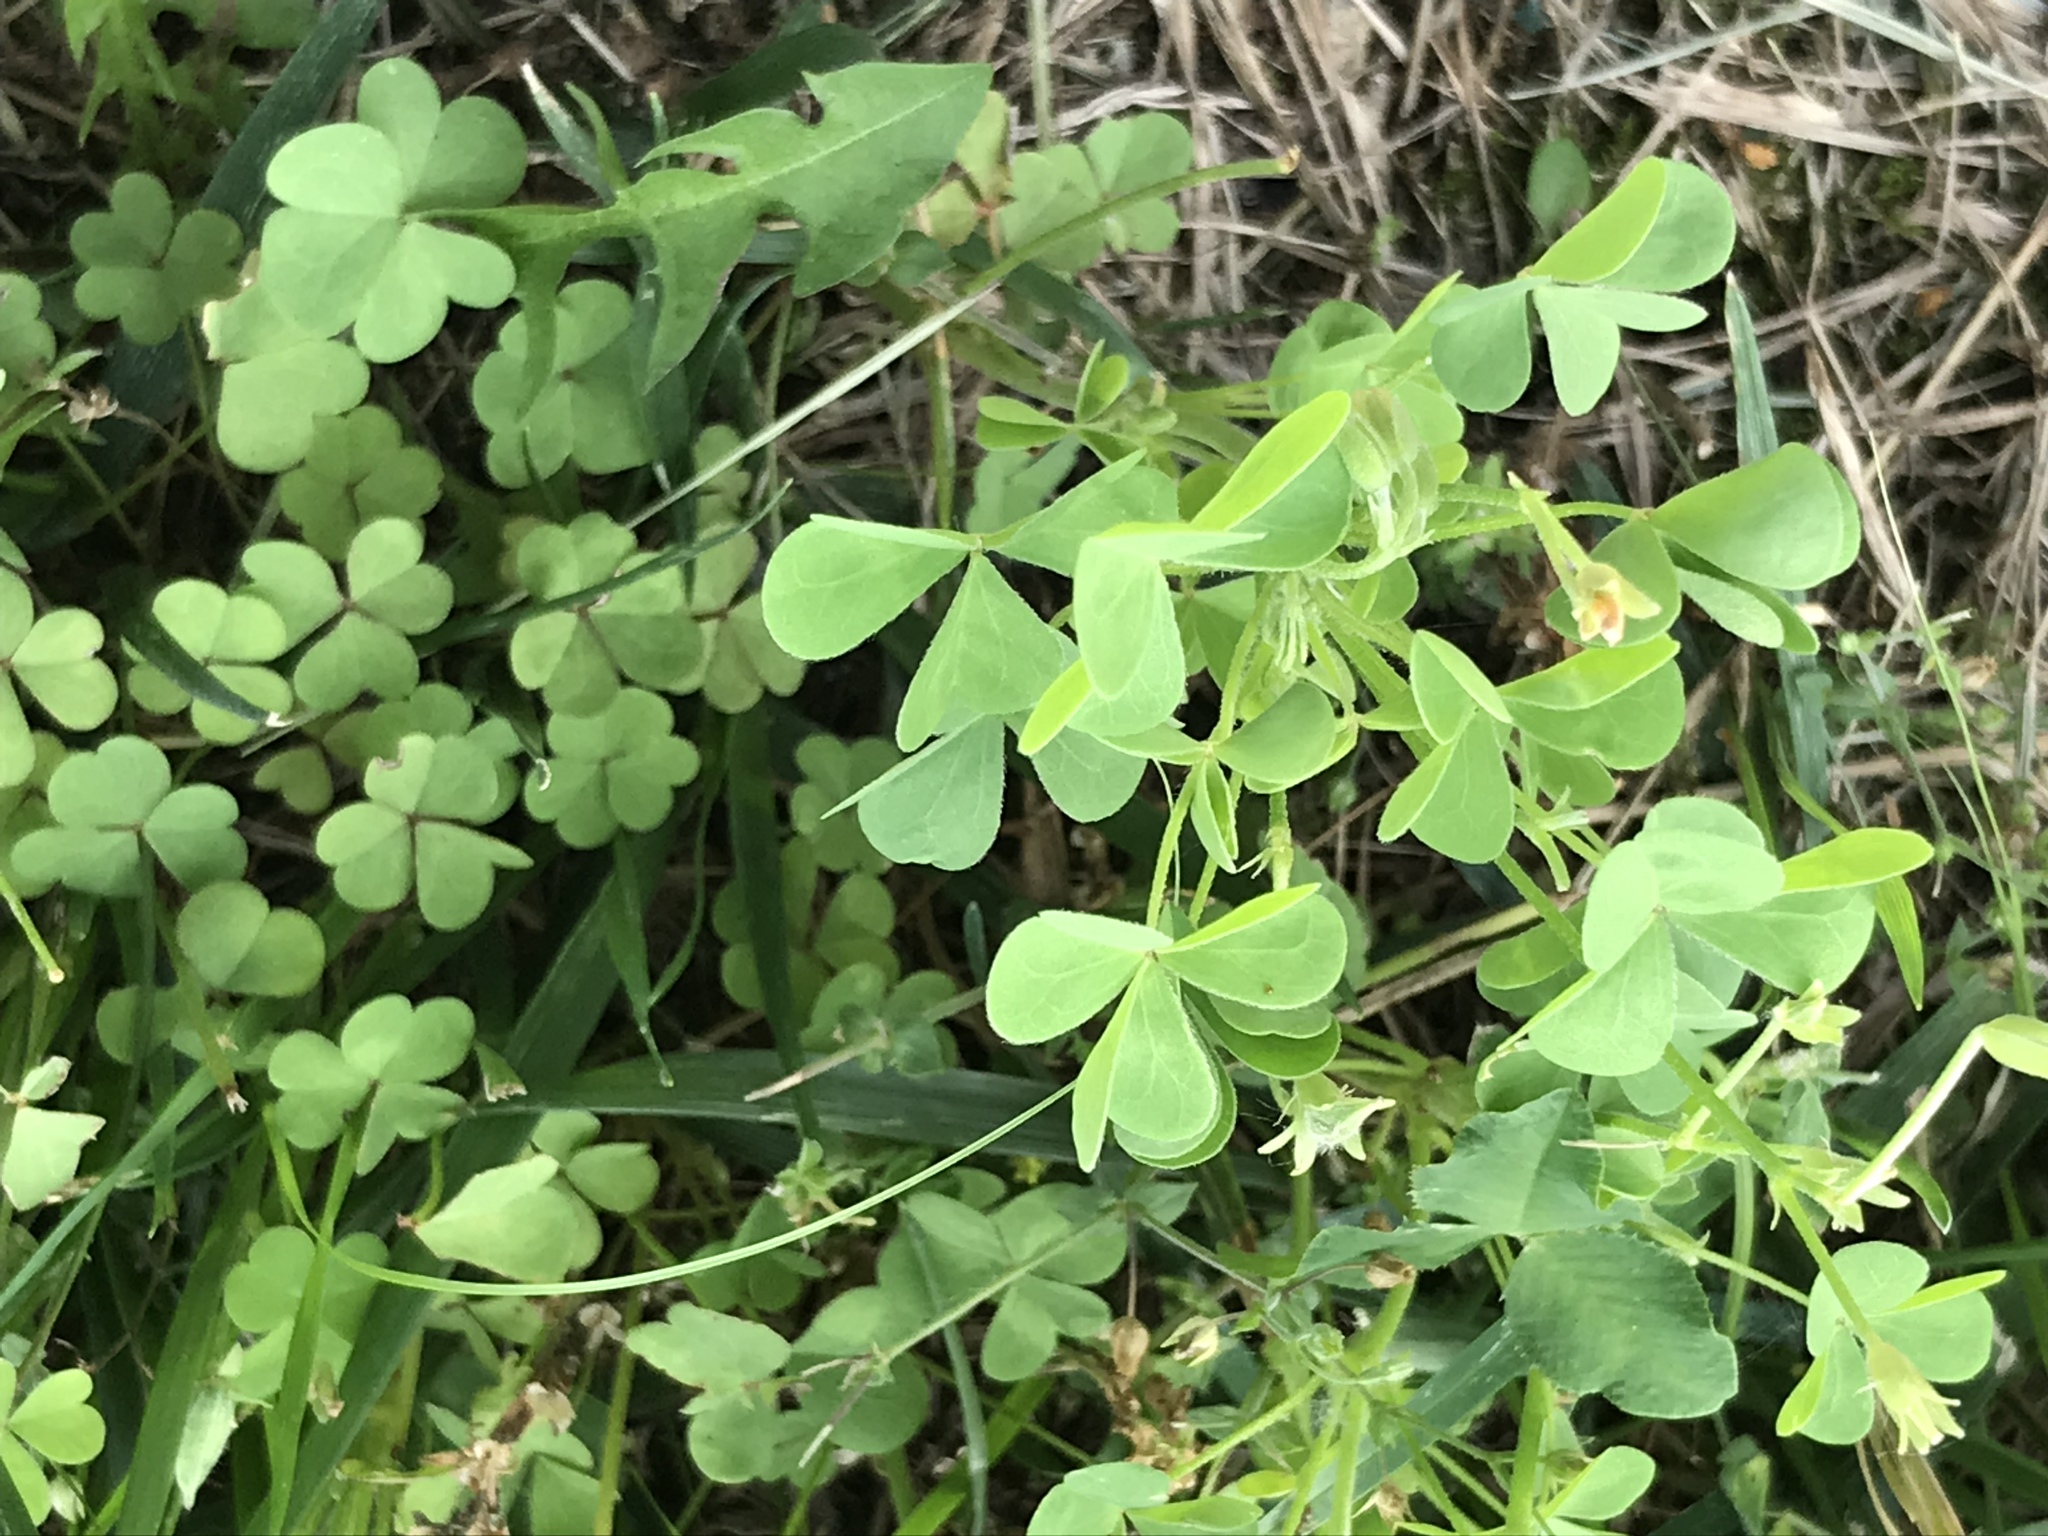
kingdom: Plantae
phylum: Tracheophyta
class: Magnoliopsida
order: Oxalidales
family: Oxalidaceae
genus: Oxalis
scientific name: Oxalis stricta
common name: Upright yellow-sorrel
